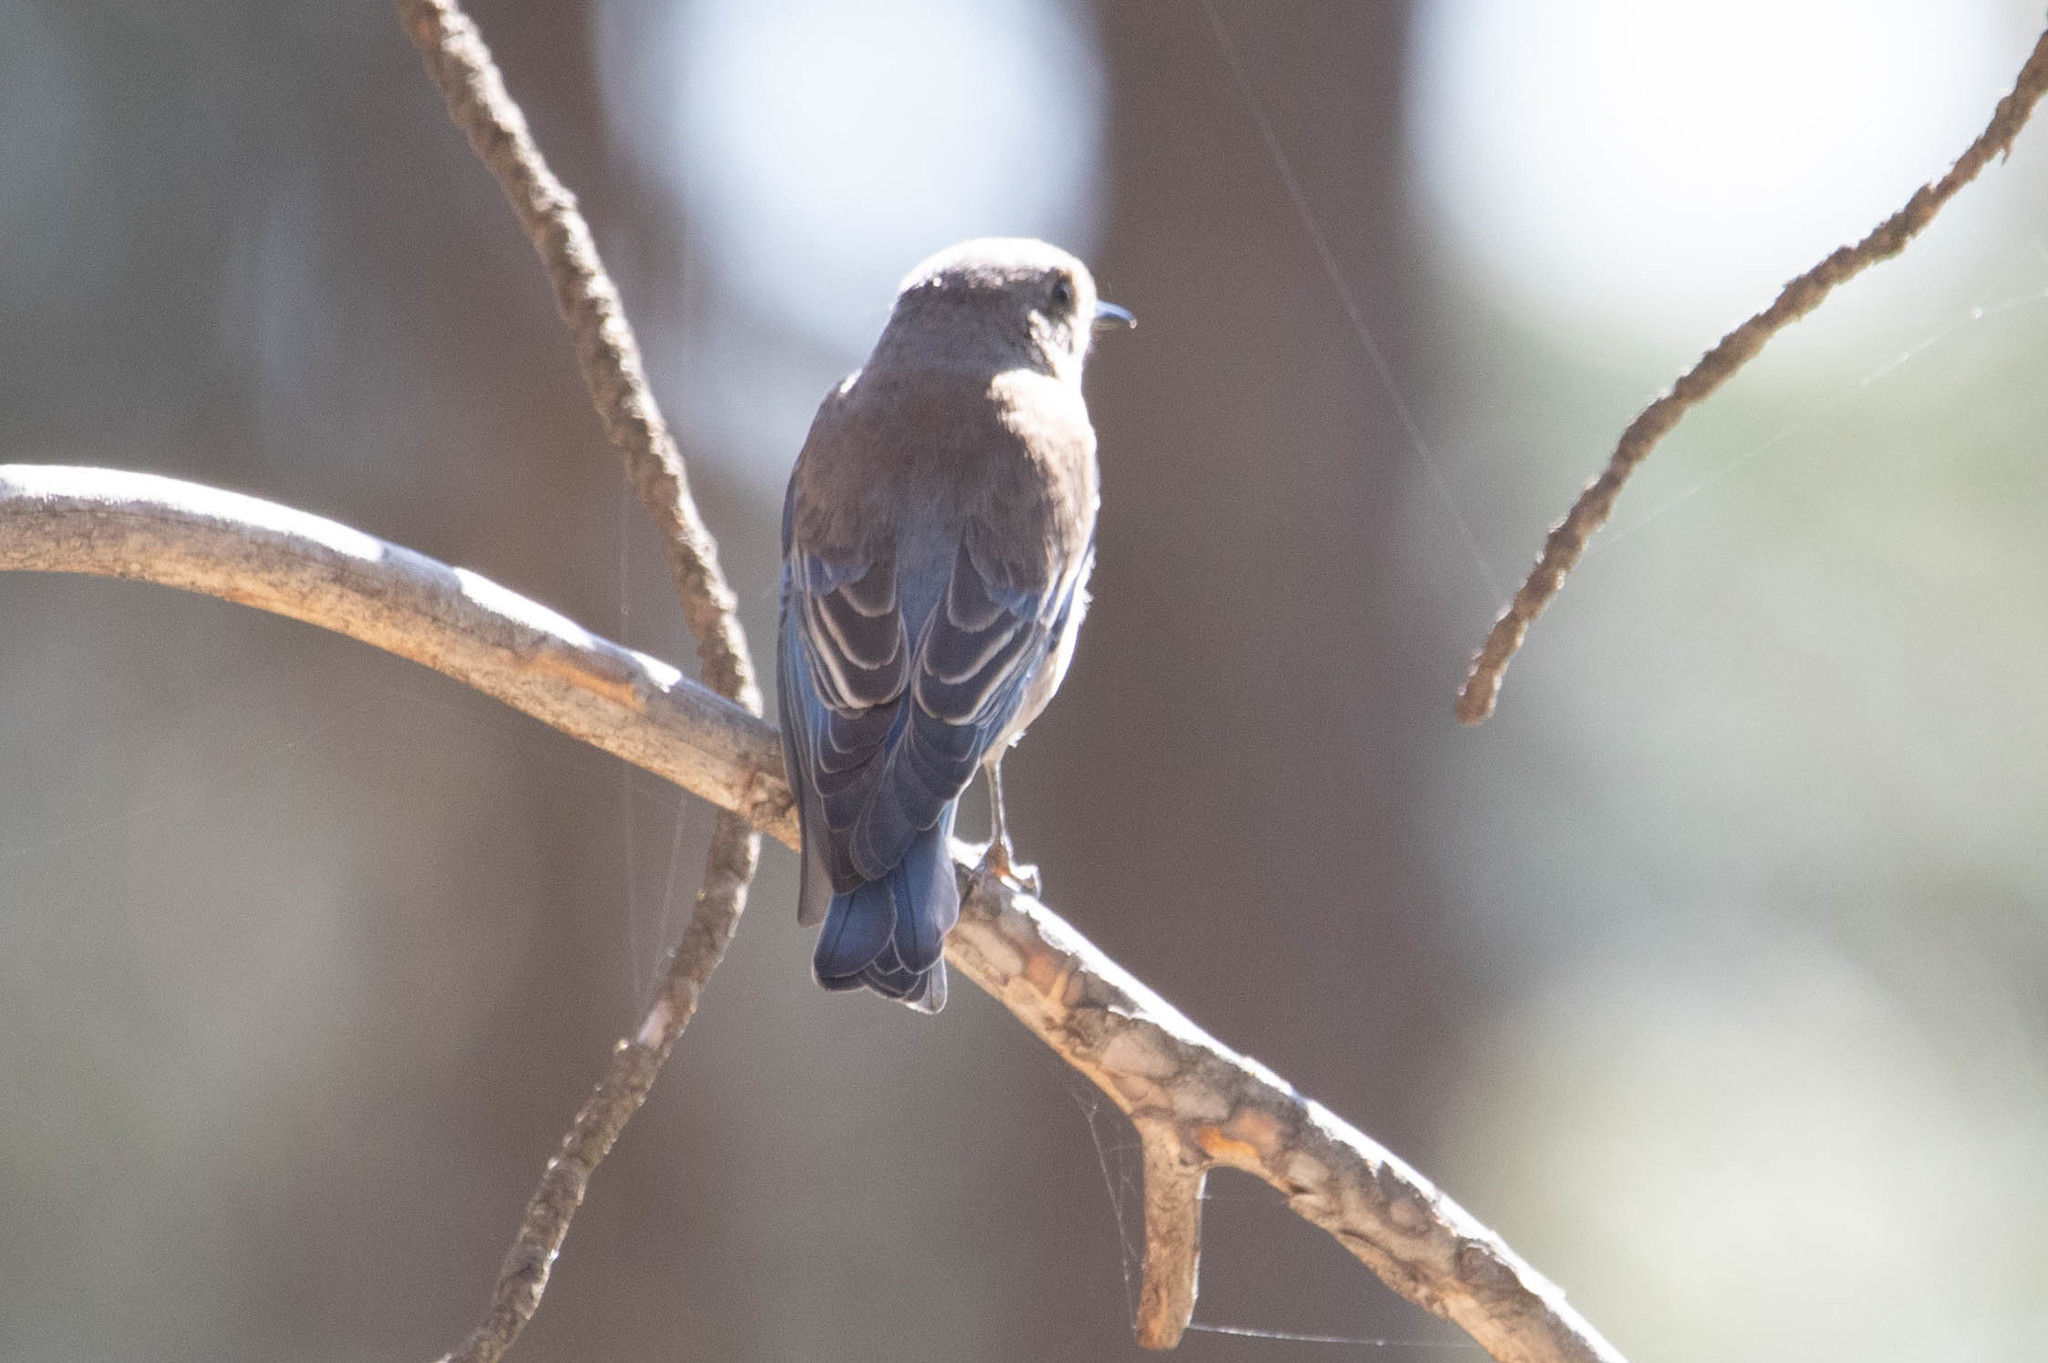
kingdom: Animalia
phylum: Chordata
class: Aves
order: Passeriformes
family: Turdidae
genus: Sialia
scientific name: Sialia mexicana
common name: Western bluebird
